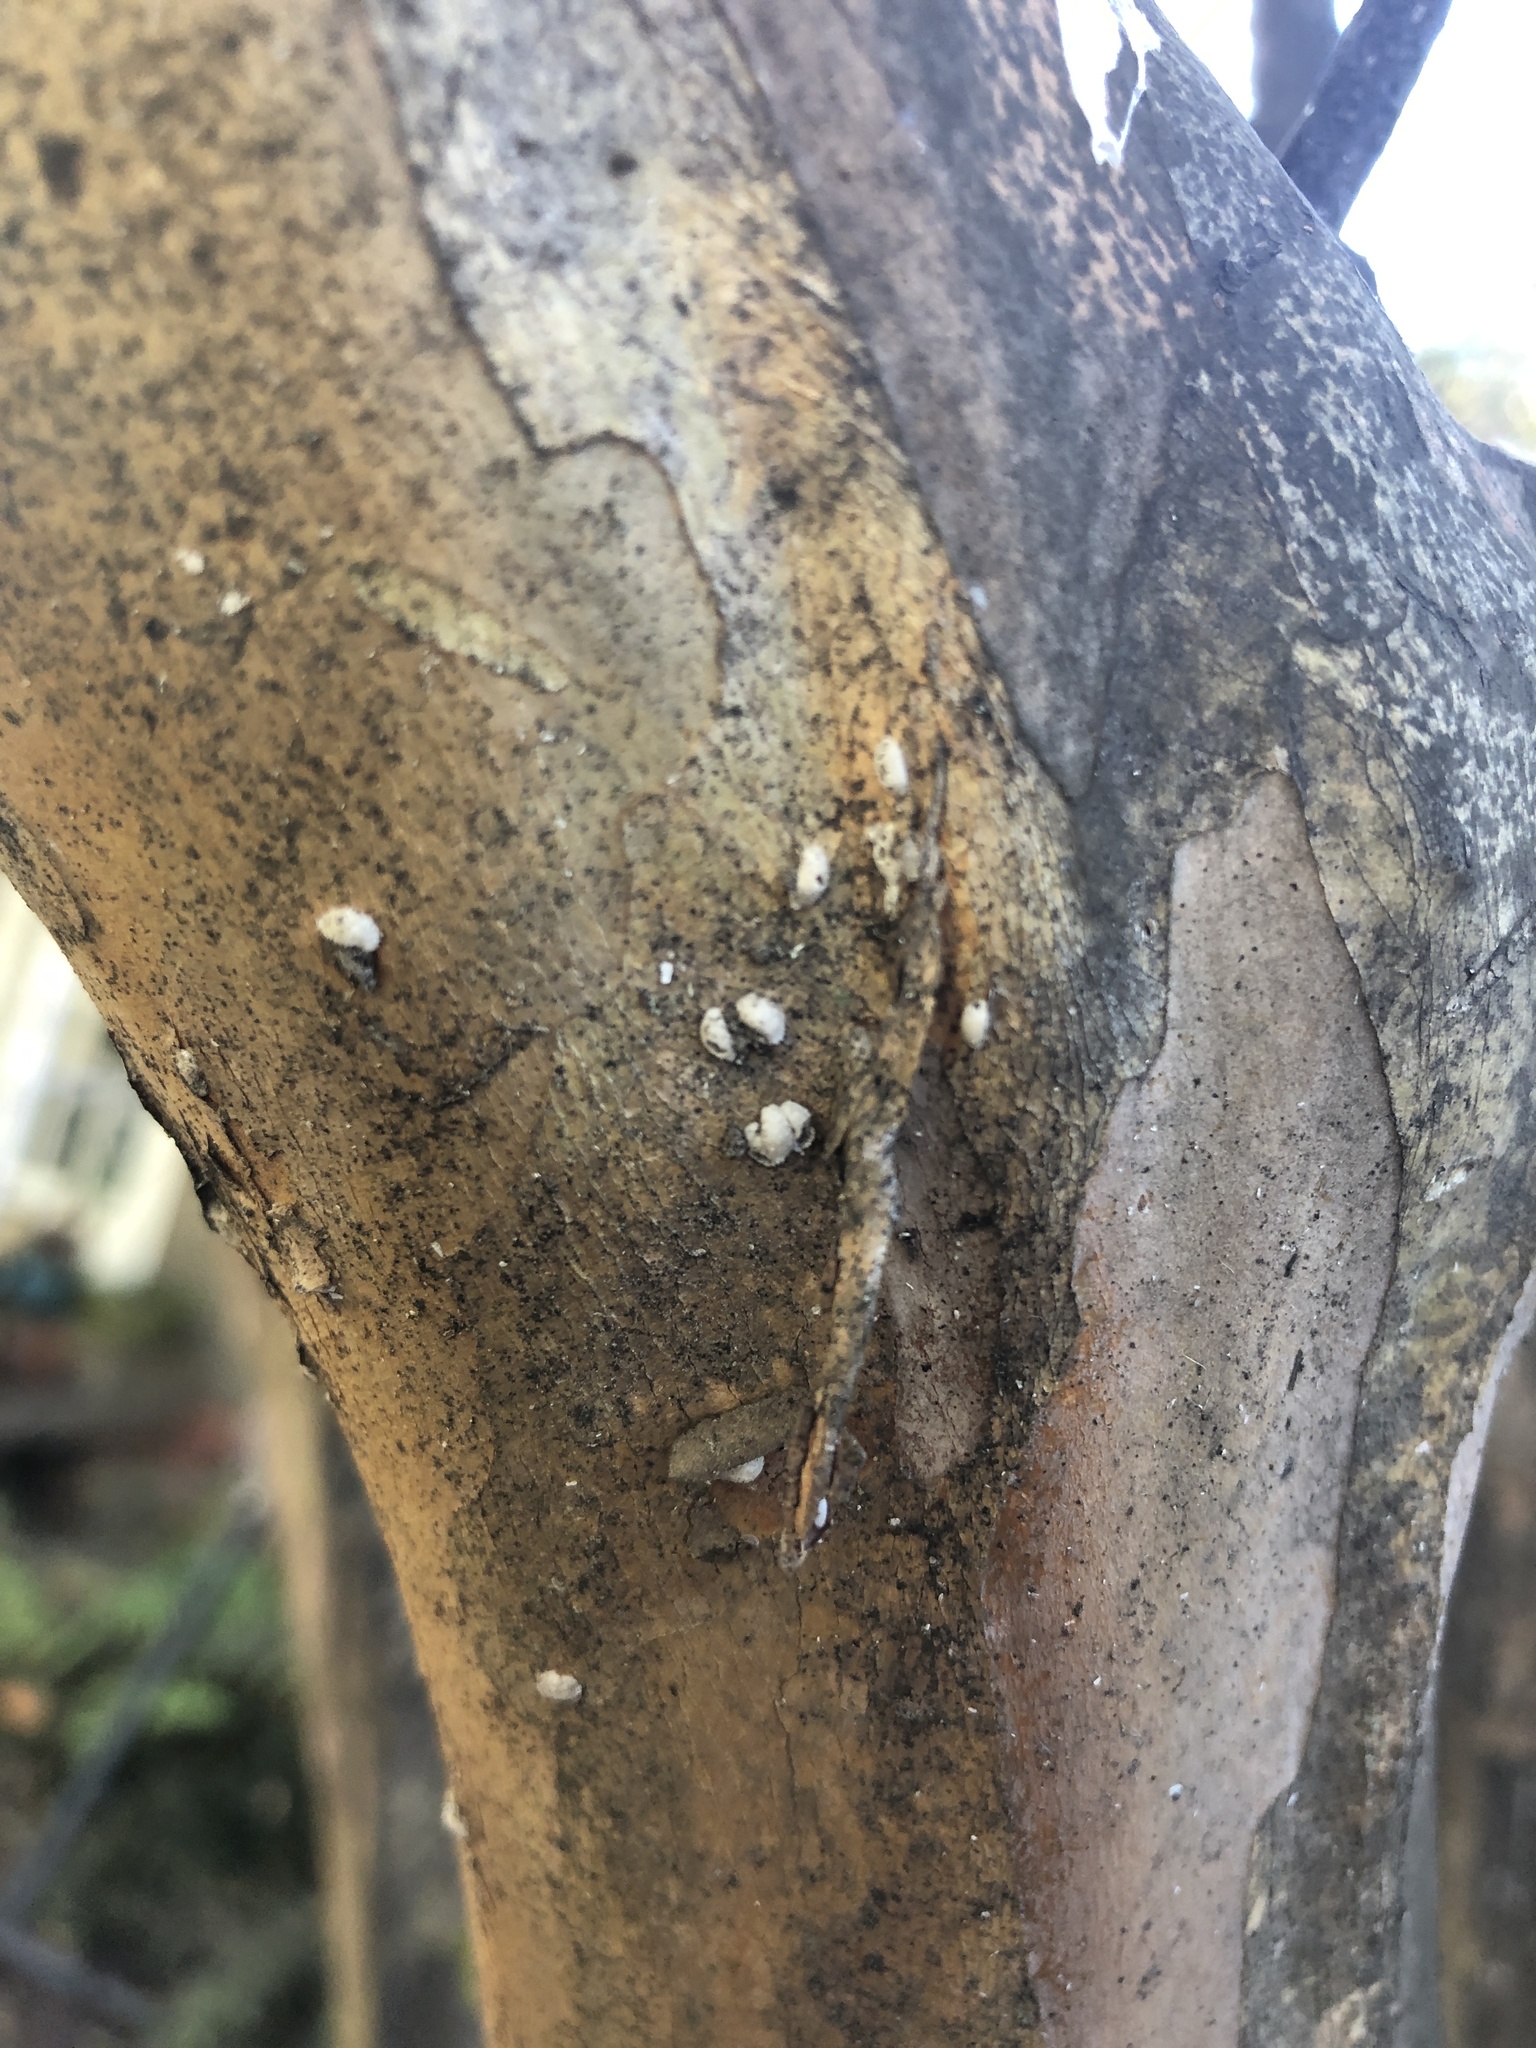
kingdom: Animalia
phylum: Arthropoda
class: Insecta
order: Hemiptera
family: Eriococcidae
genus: Eriococcus
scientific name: Eriococcus lagerstroemiae
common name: Crapemyrtle bark scale
